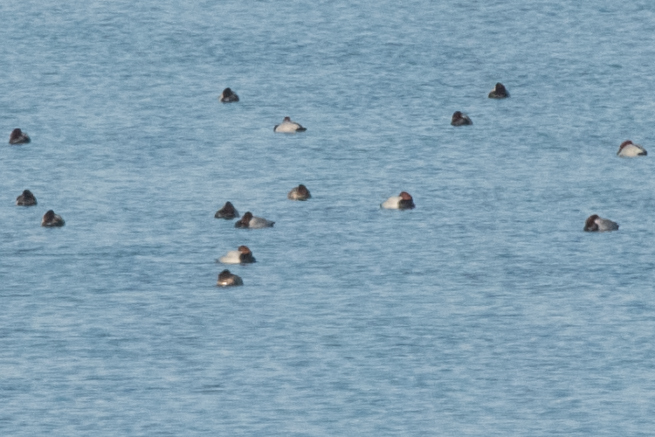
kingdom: Animalia
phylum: Chordata
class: Aves
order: Anseriformes
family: Anatidae
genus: Aythya
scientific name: Aythya ferina
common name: Common pochard
